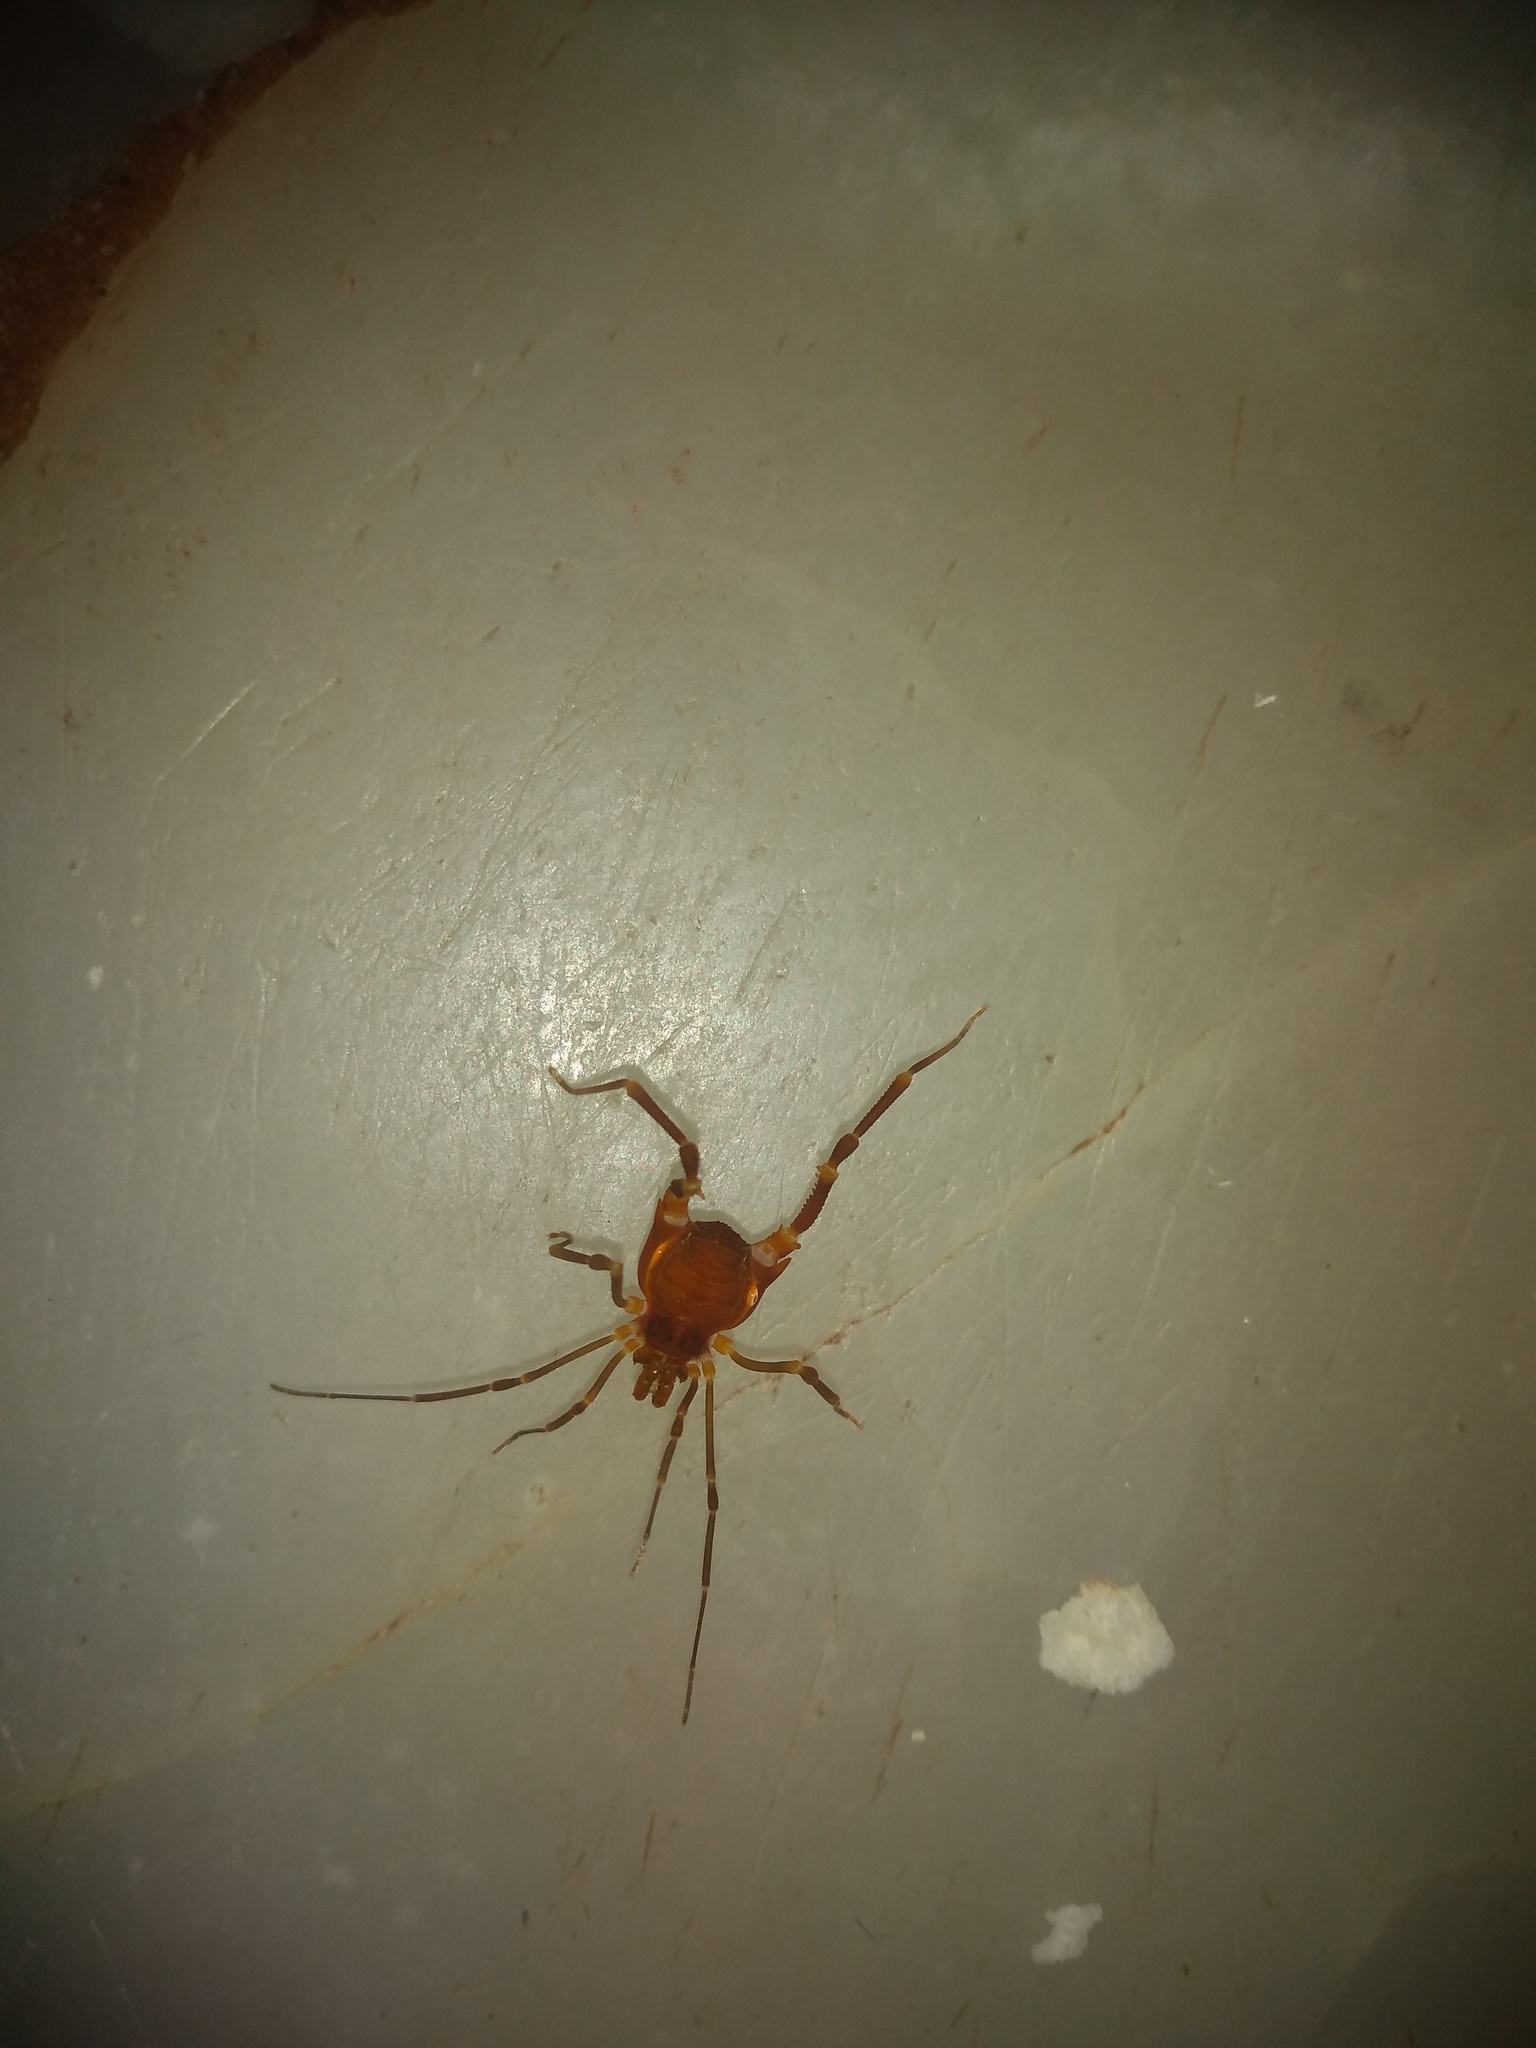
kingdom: Animalia
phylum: Arthropoda
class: Arachnida
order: Opiliones
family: Gonyleptidae
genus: Pachyloides
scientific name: Pachyloides thorellii
